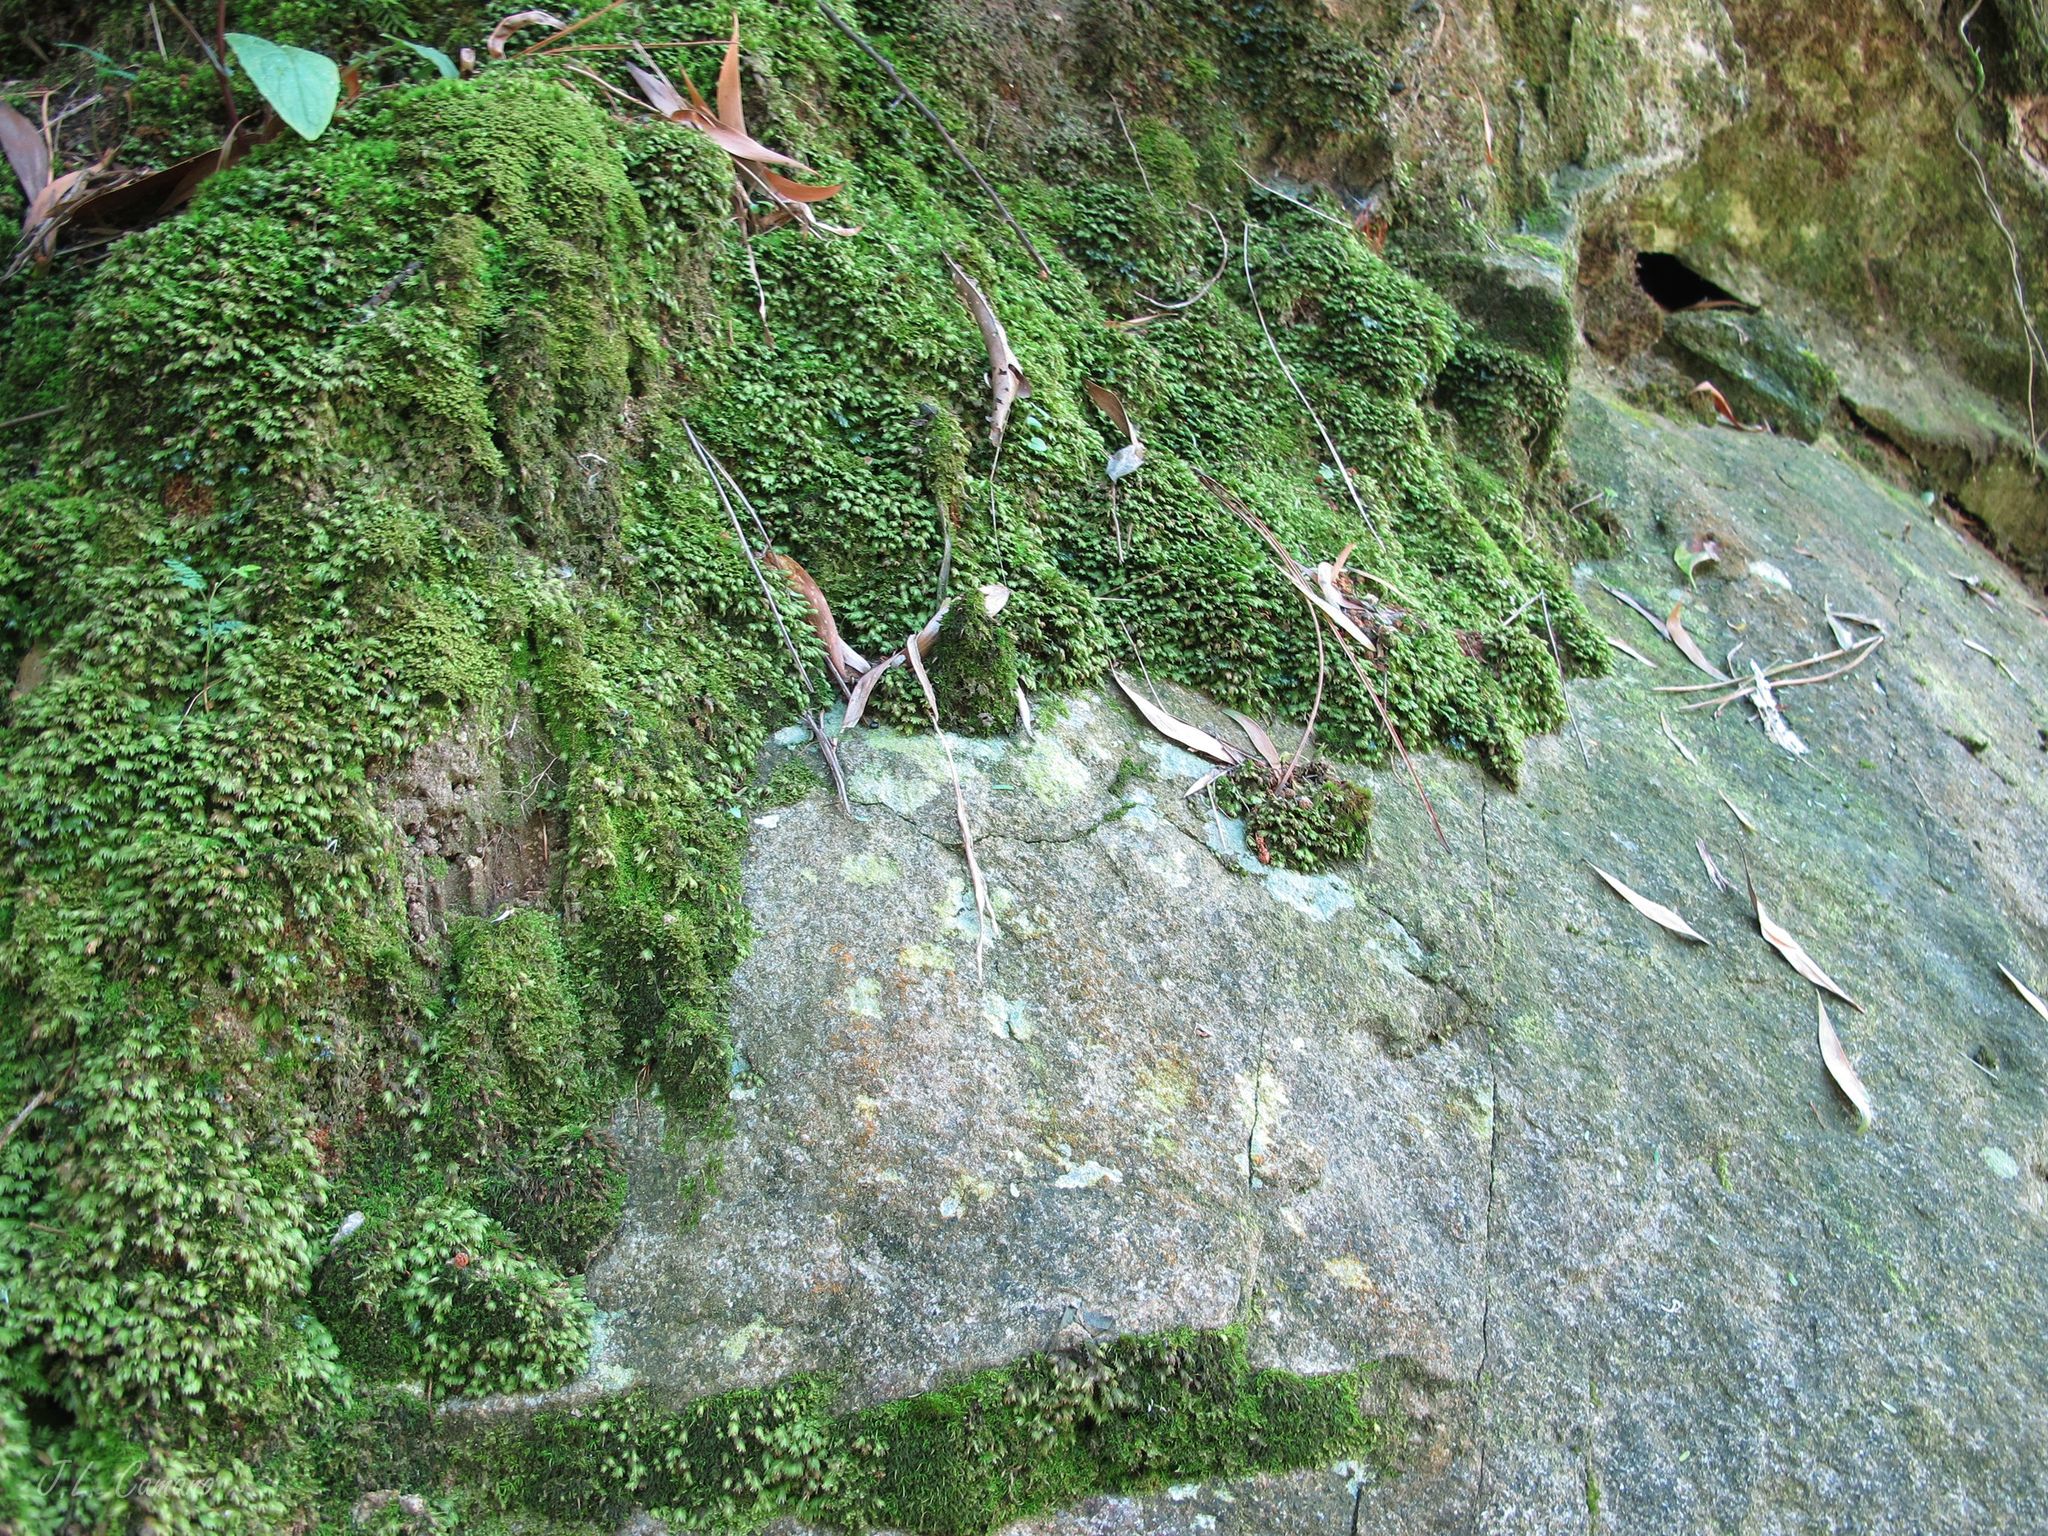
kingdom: Plantae
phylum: Bryophyta
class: Polytrichopsida
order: Polytrichales
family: Polytrichaceae
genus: Atrichum
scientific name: Atrichum undulatum
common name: Common smoothcap
